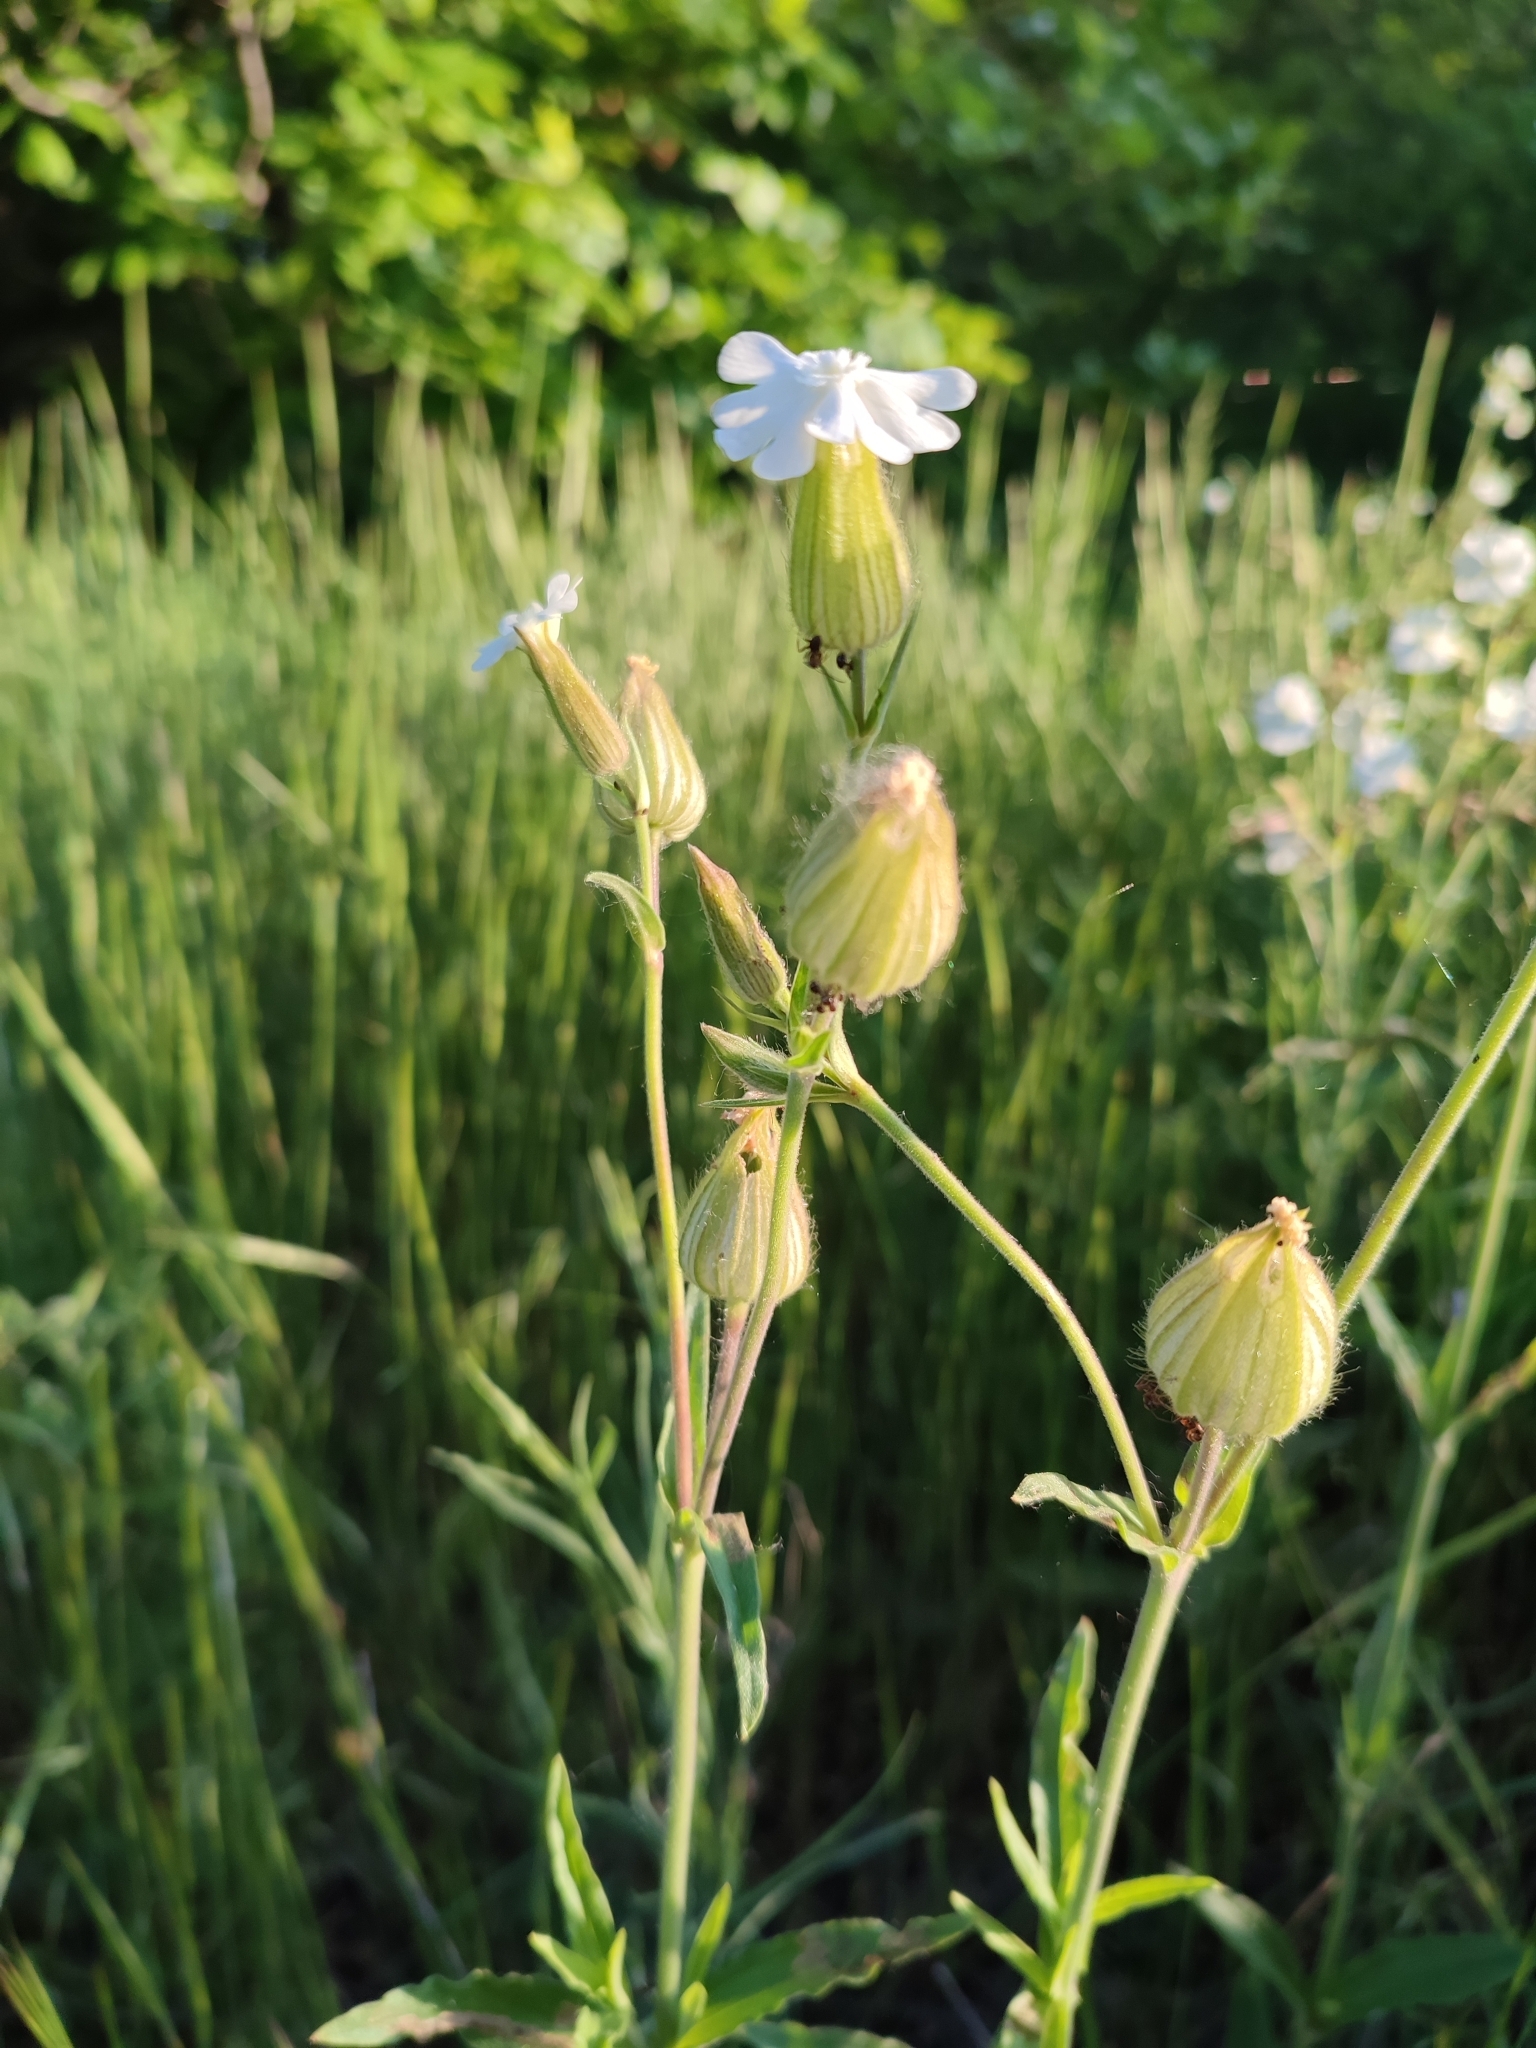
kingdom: Plantae
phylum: Tracheophyta
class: Magnoliopsida
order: Caryophyllales
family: Caryophyllaceae
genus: Silene
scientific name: Silene latifolia
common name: White campion
